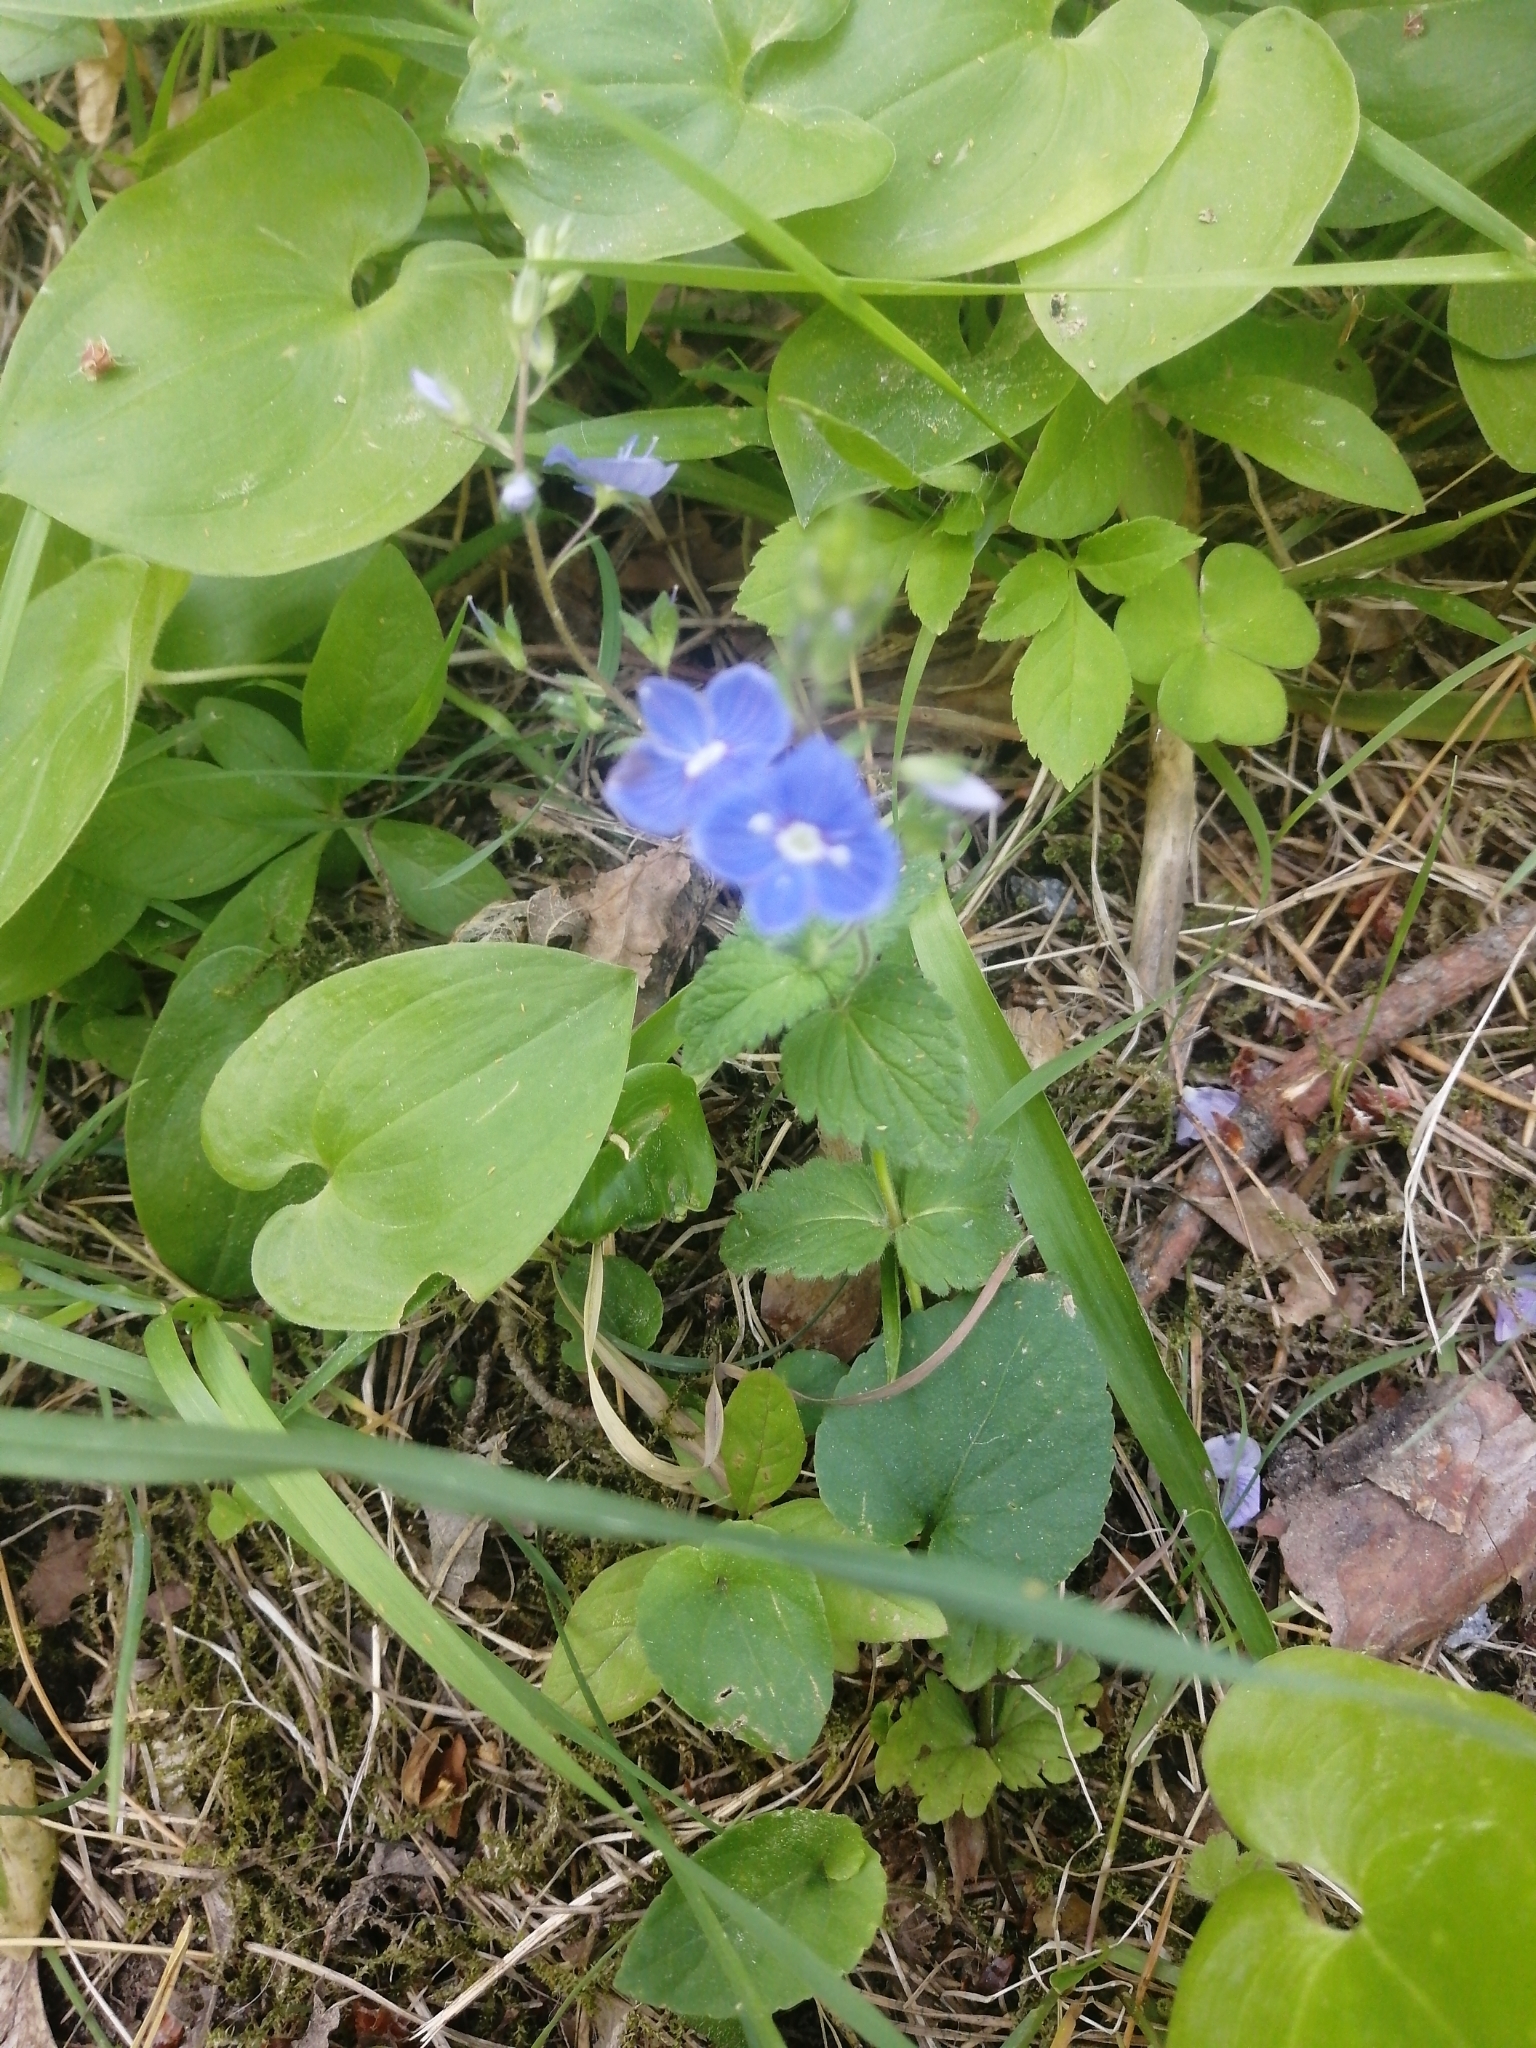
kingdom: Plantae
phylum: Tracheophyta
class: Magnoliopsida
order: Lamiales
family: Plantaginaceae
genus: Veronica
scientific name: Veronica chamaedrys
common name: Germander speedwell
